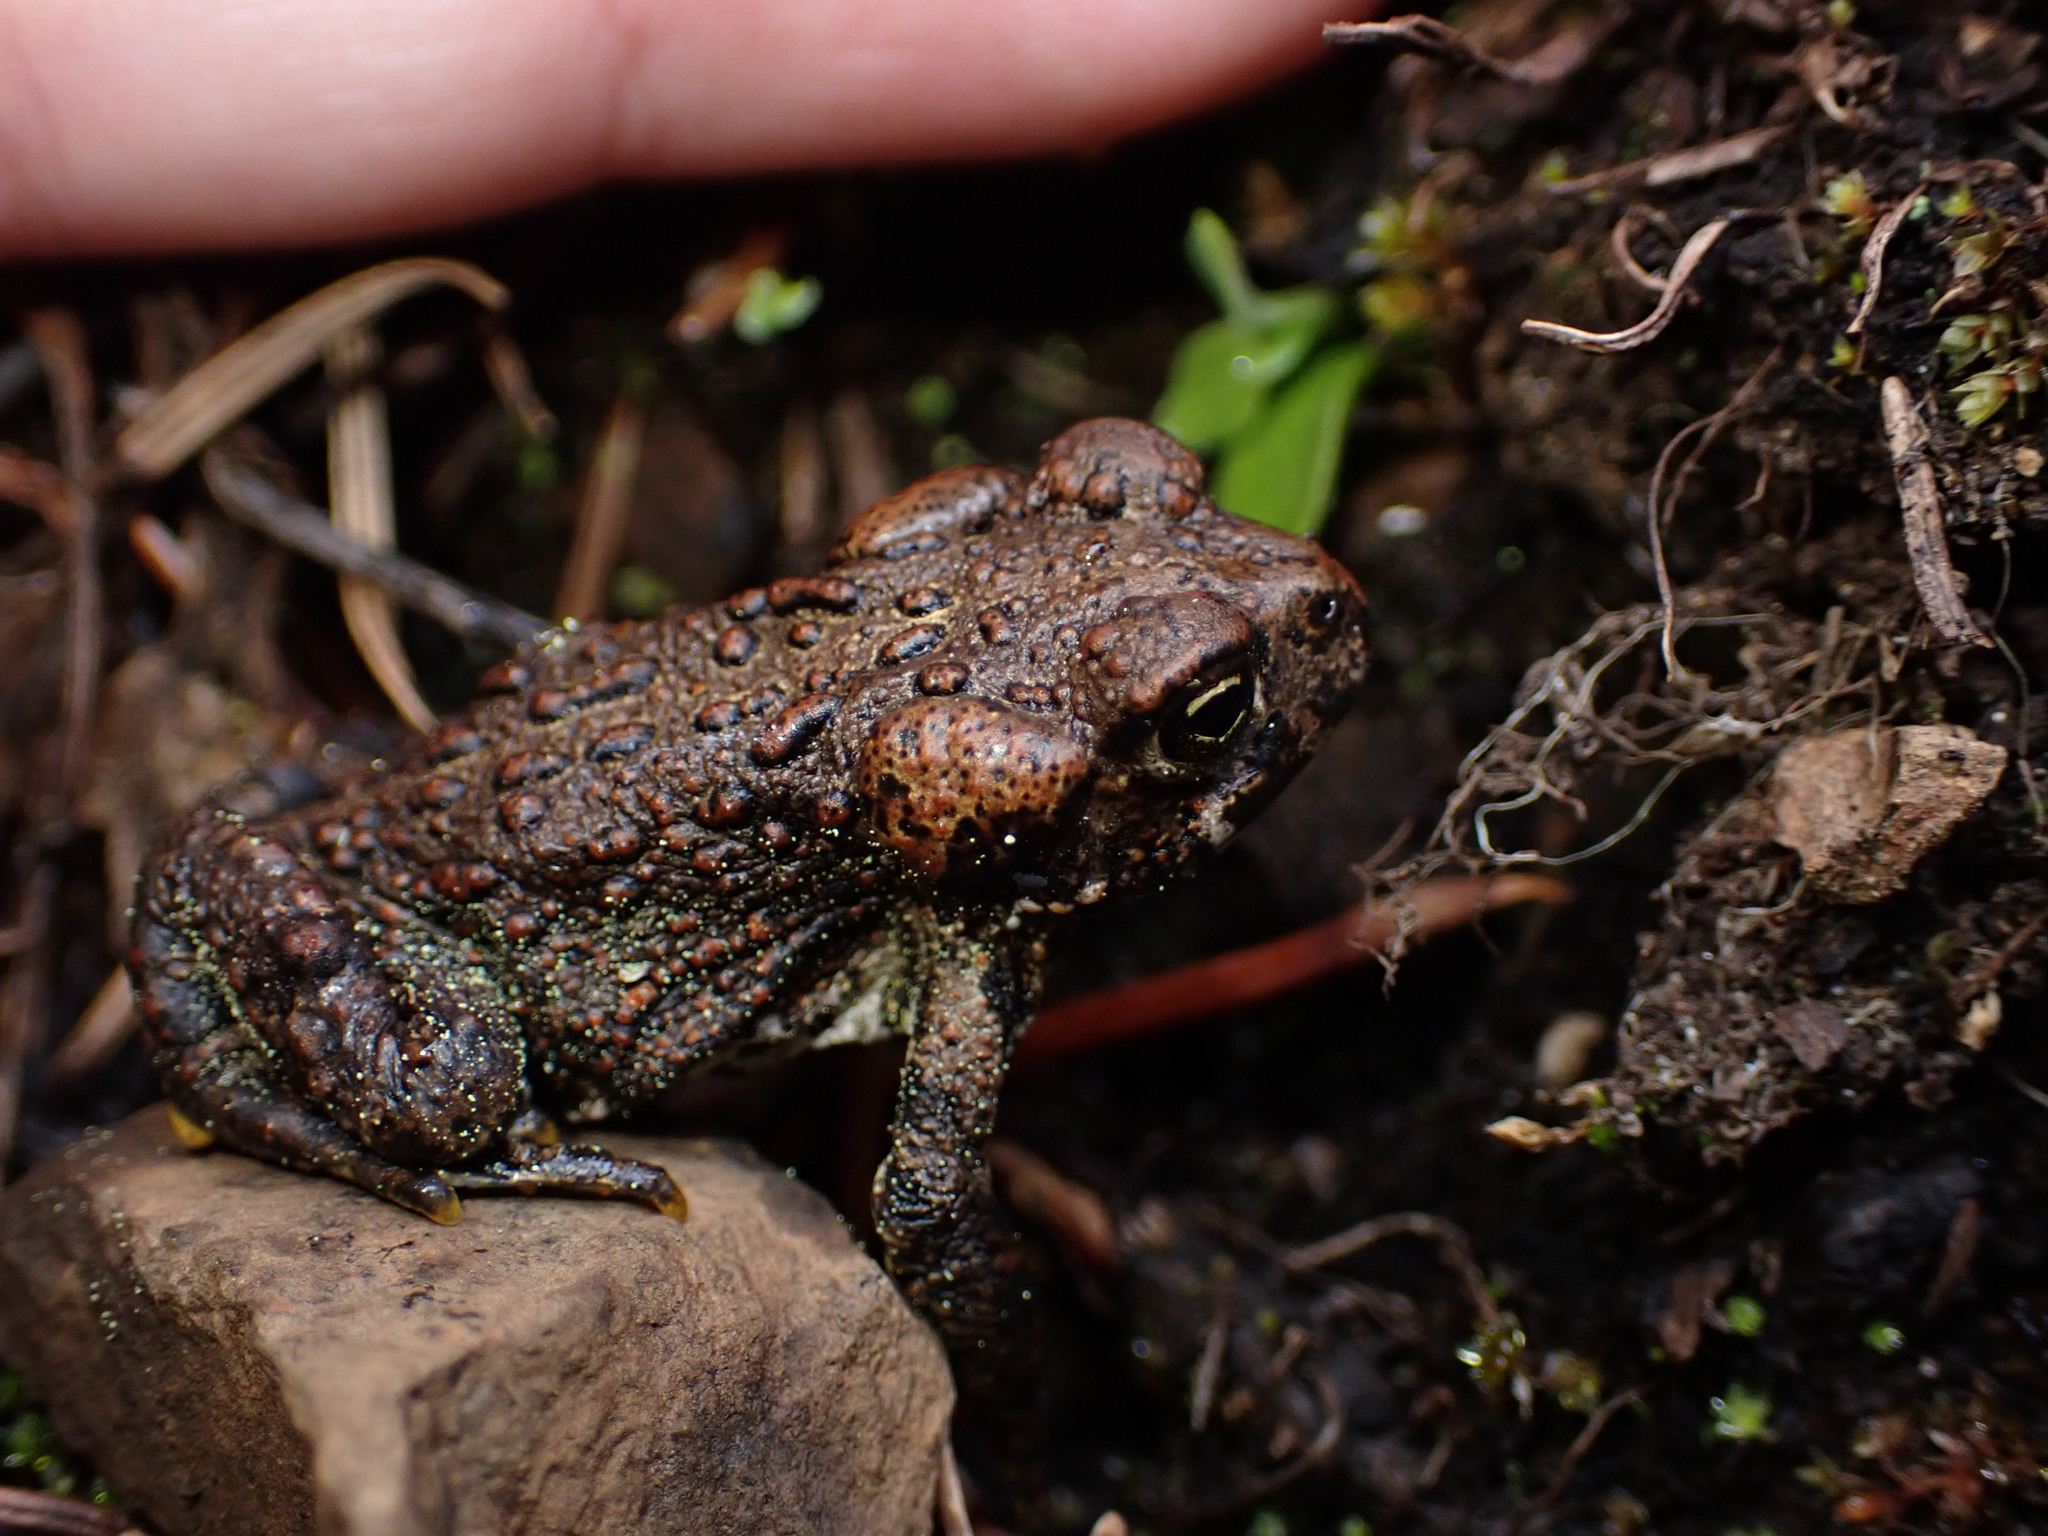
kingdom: Animalia
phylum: Chordata
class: Amphibia
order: Anura
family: Bufonidae
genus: Anaxyrus
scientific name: Anaxyrus boreas
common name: Western toad
